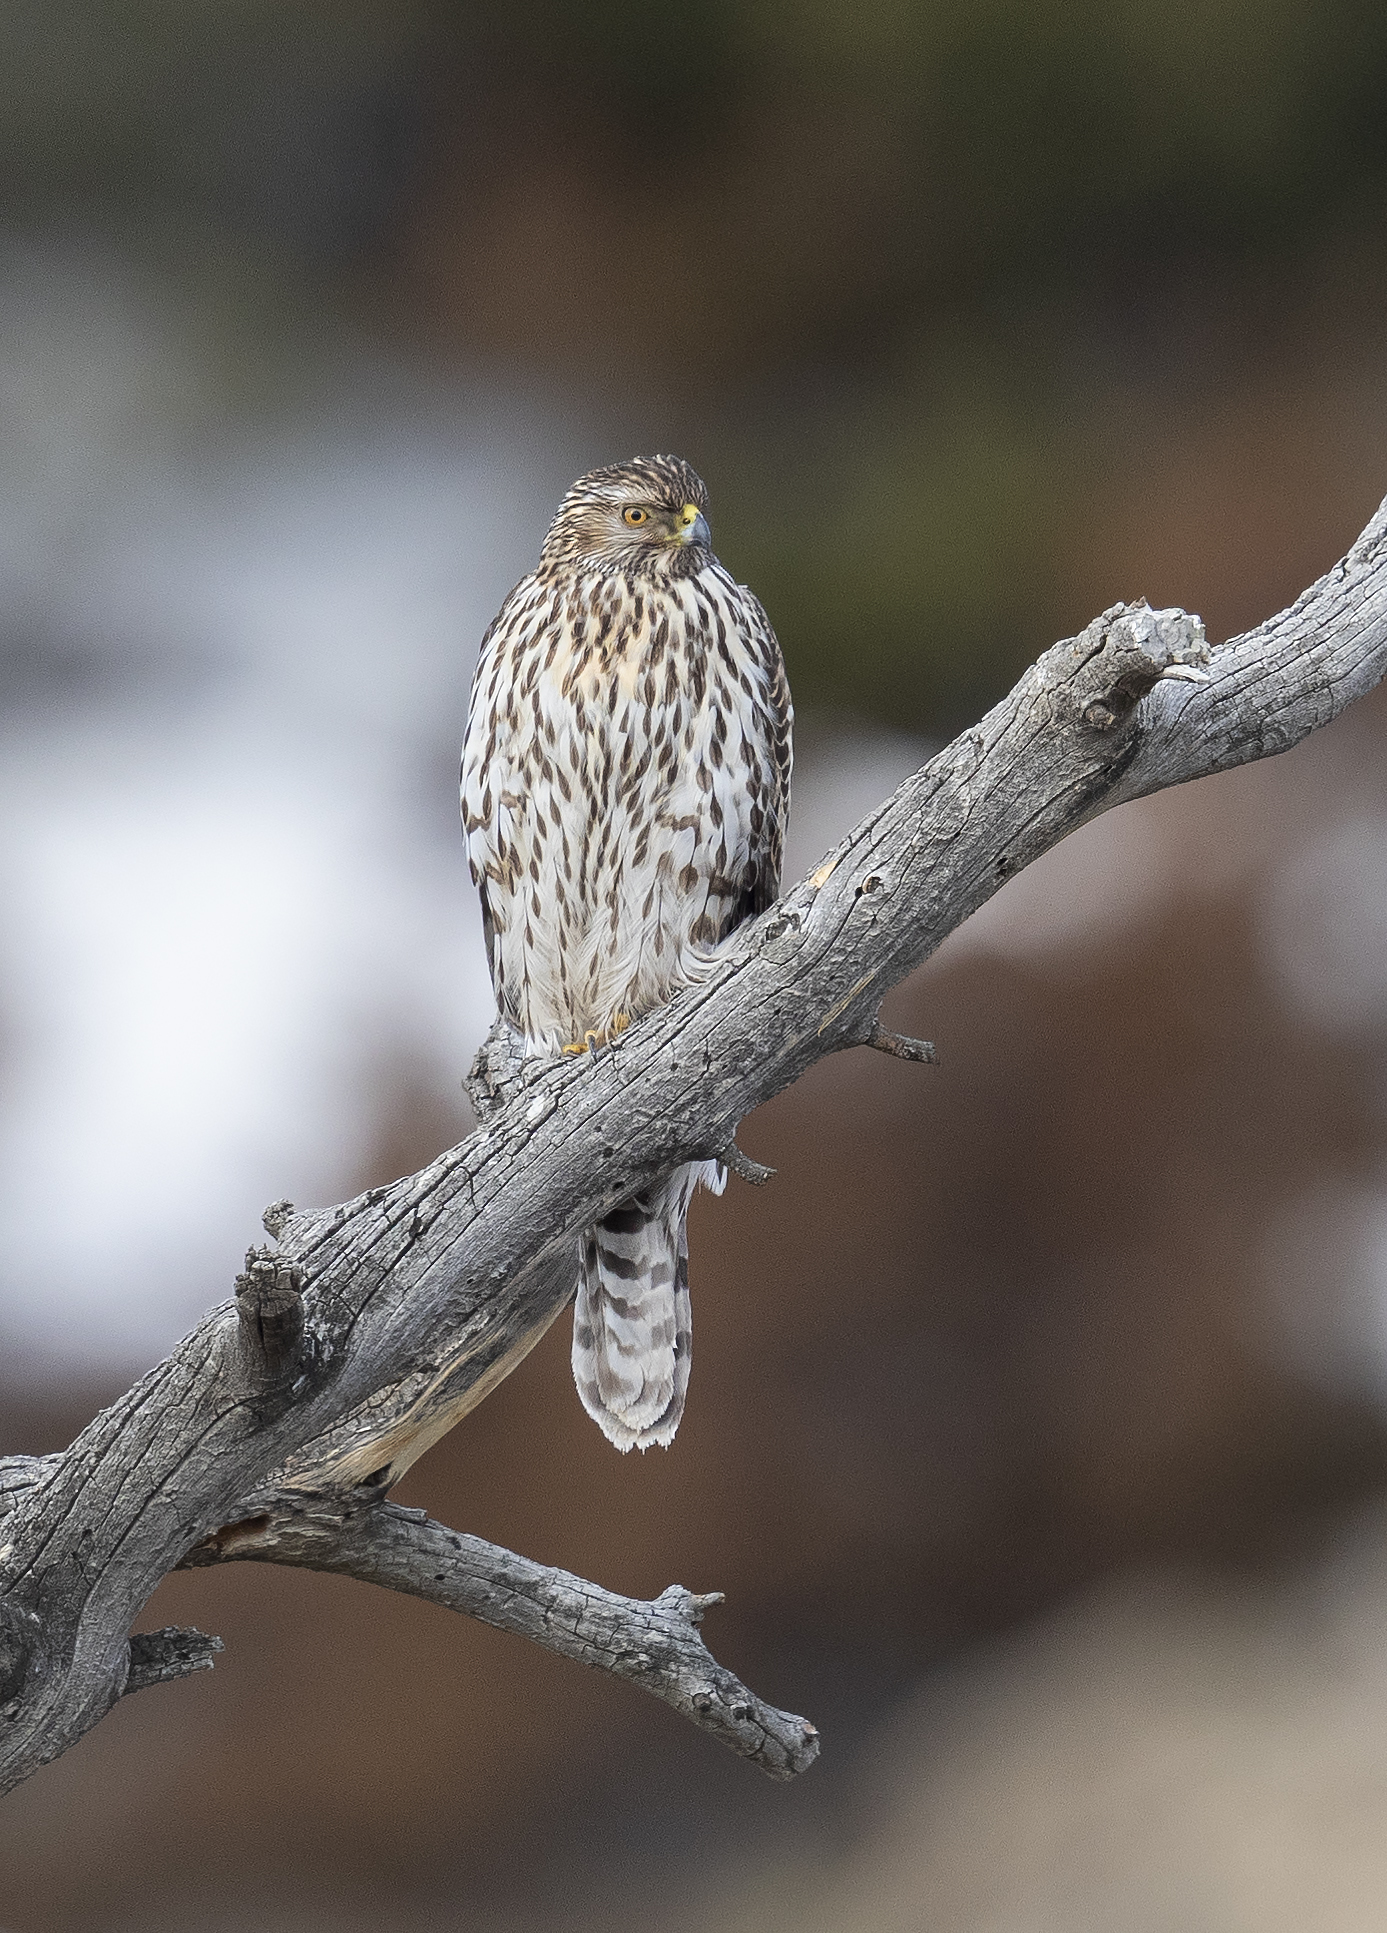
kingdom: Animalia
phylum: Chordata
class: Aves
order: Accipitriformes
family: Accipitridae
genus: Accipiter
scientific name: Accipiter gentilis
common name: Northern goshawk
